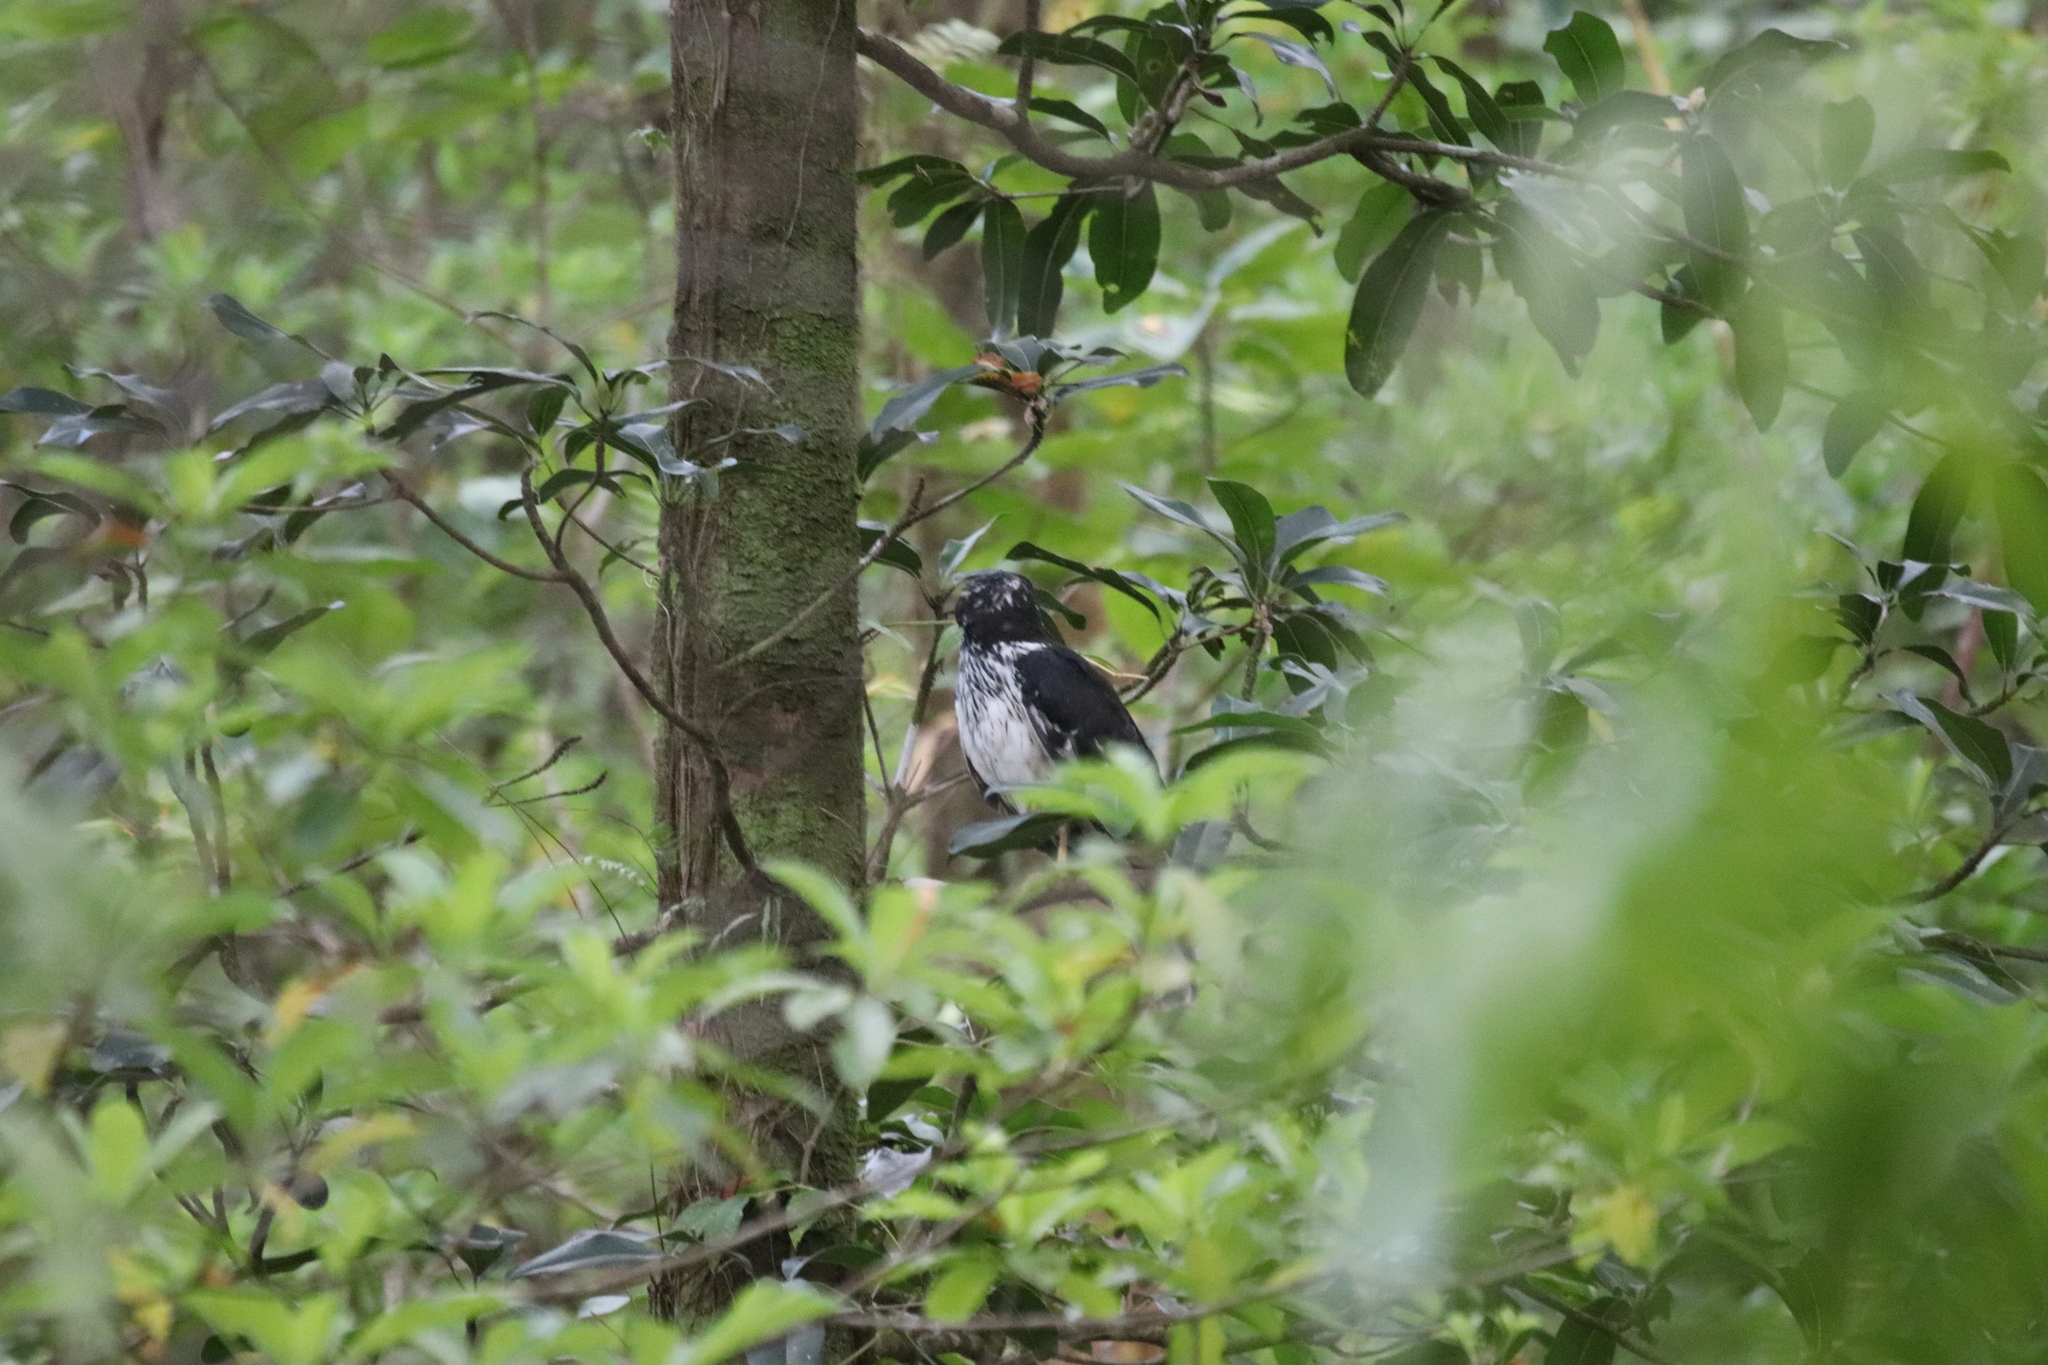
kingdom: Animalia
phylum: Chordata
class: Aves
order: Accipitriformes
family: Accipitridae
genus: Circus
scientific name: Circus maillardi
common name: Reunion harrier
